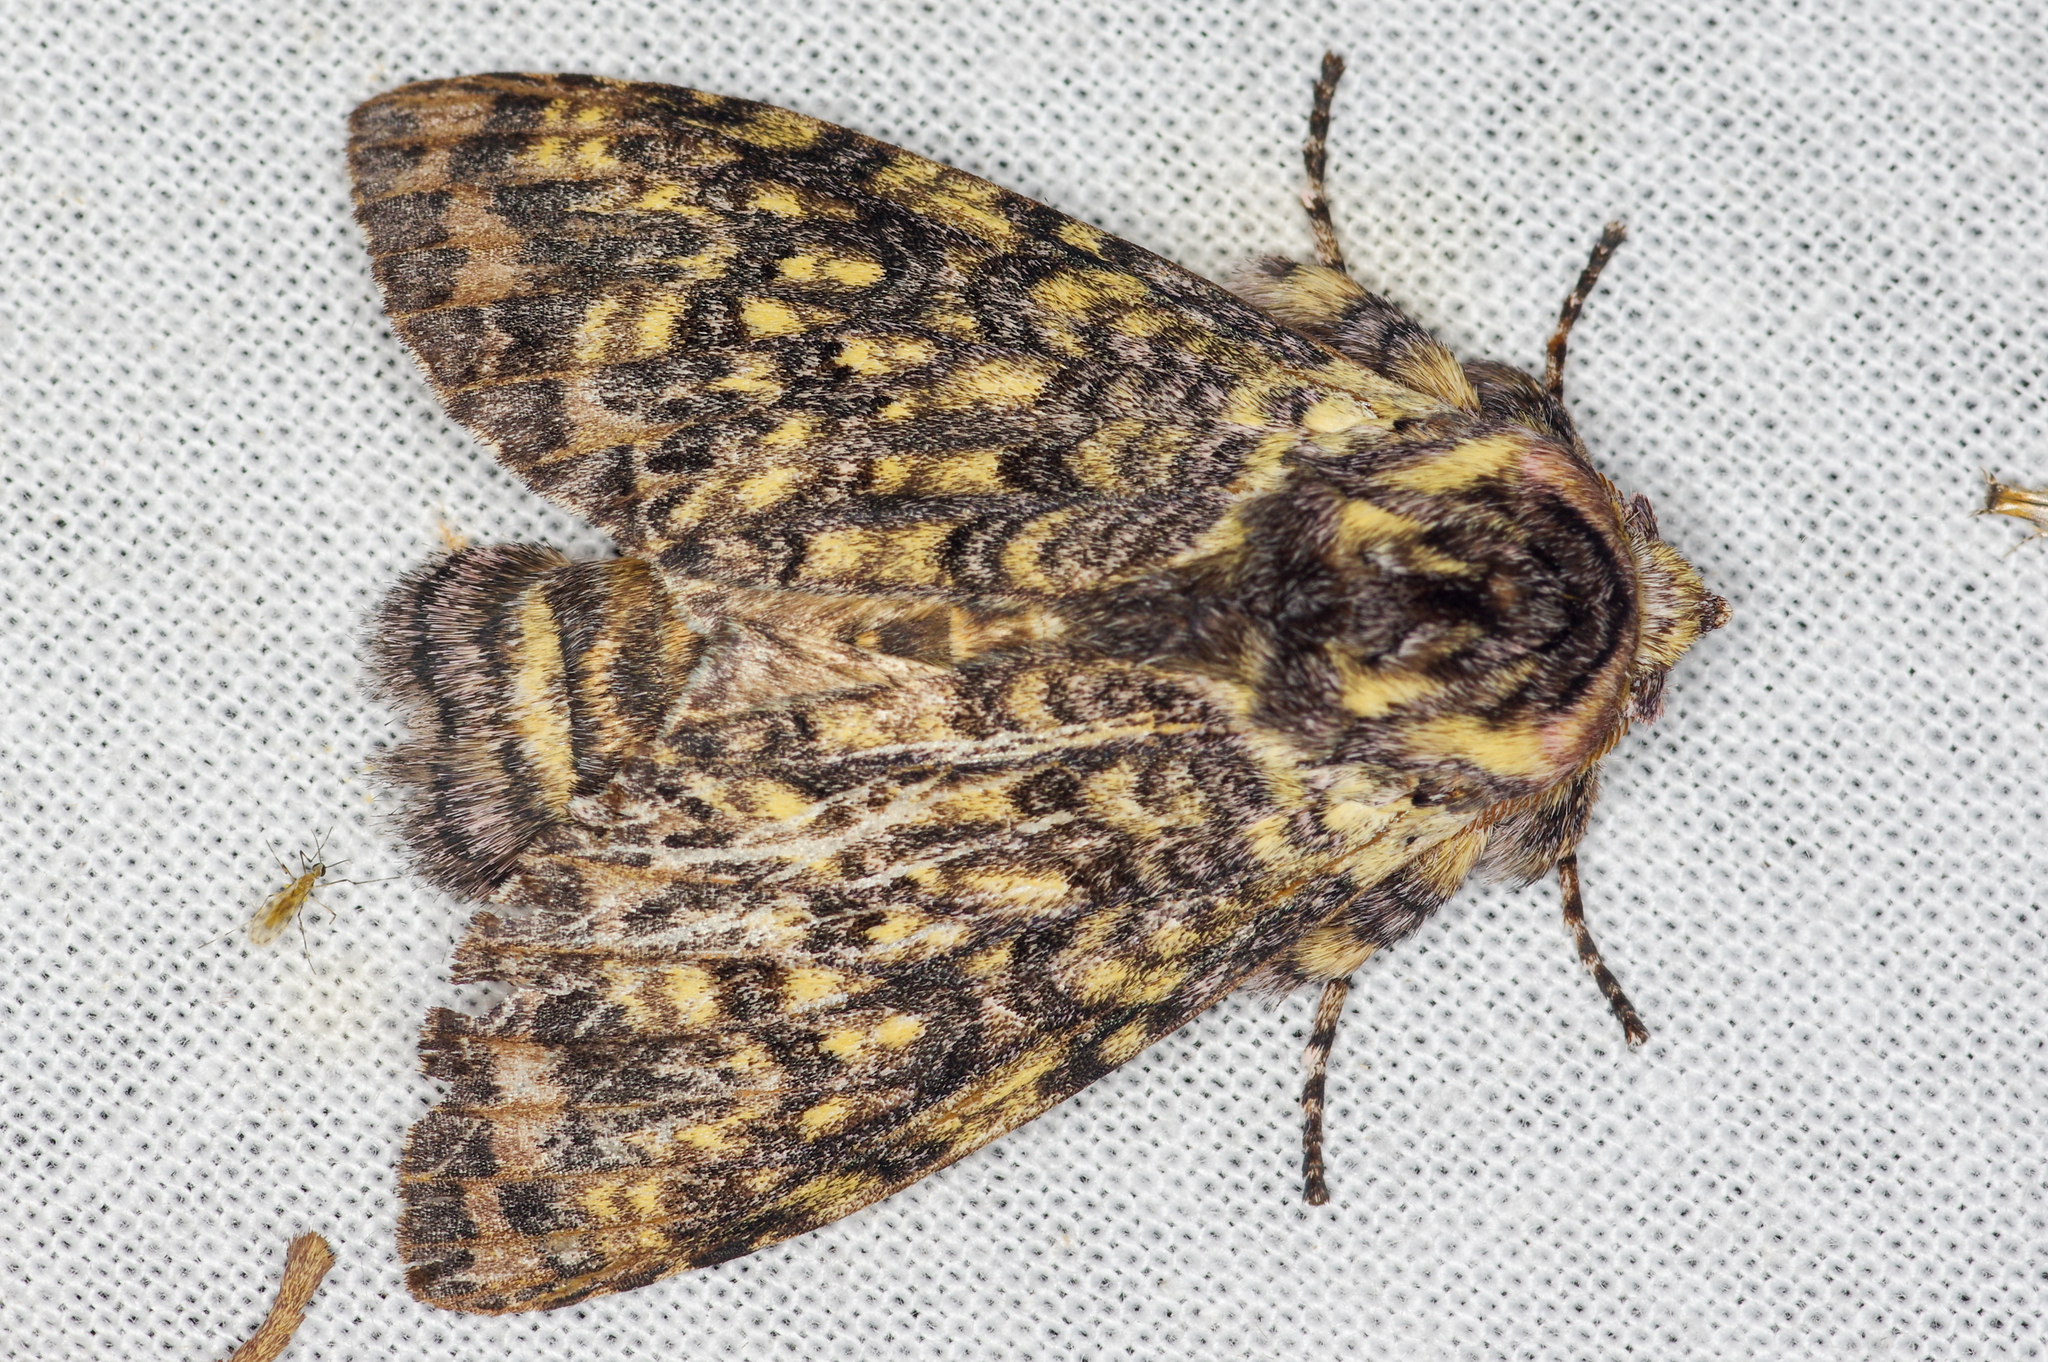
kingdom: Animalia
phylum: Arthropoda
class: Insecta
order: Lepidoptera
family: Notodontidae
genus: Malocampa
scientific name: Malocampa manana
